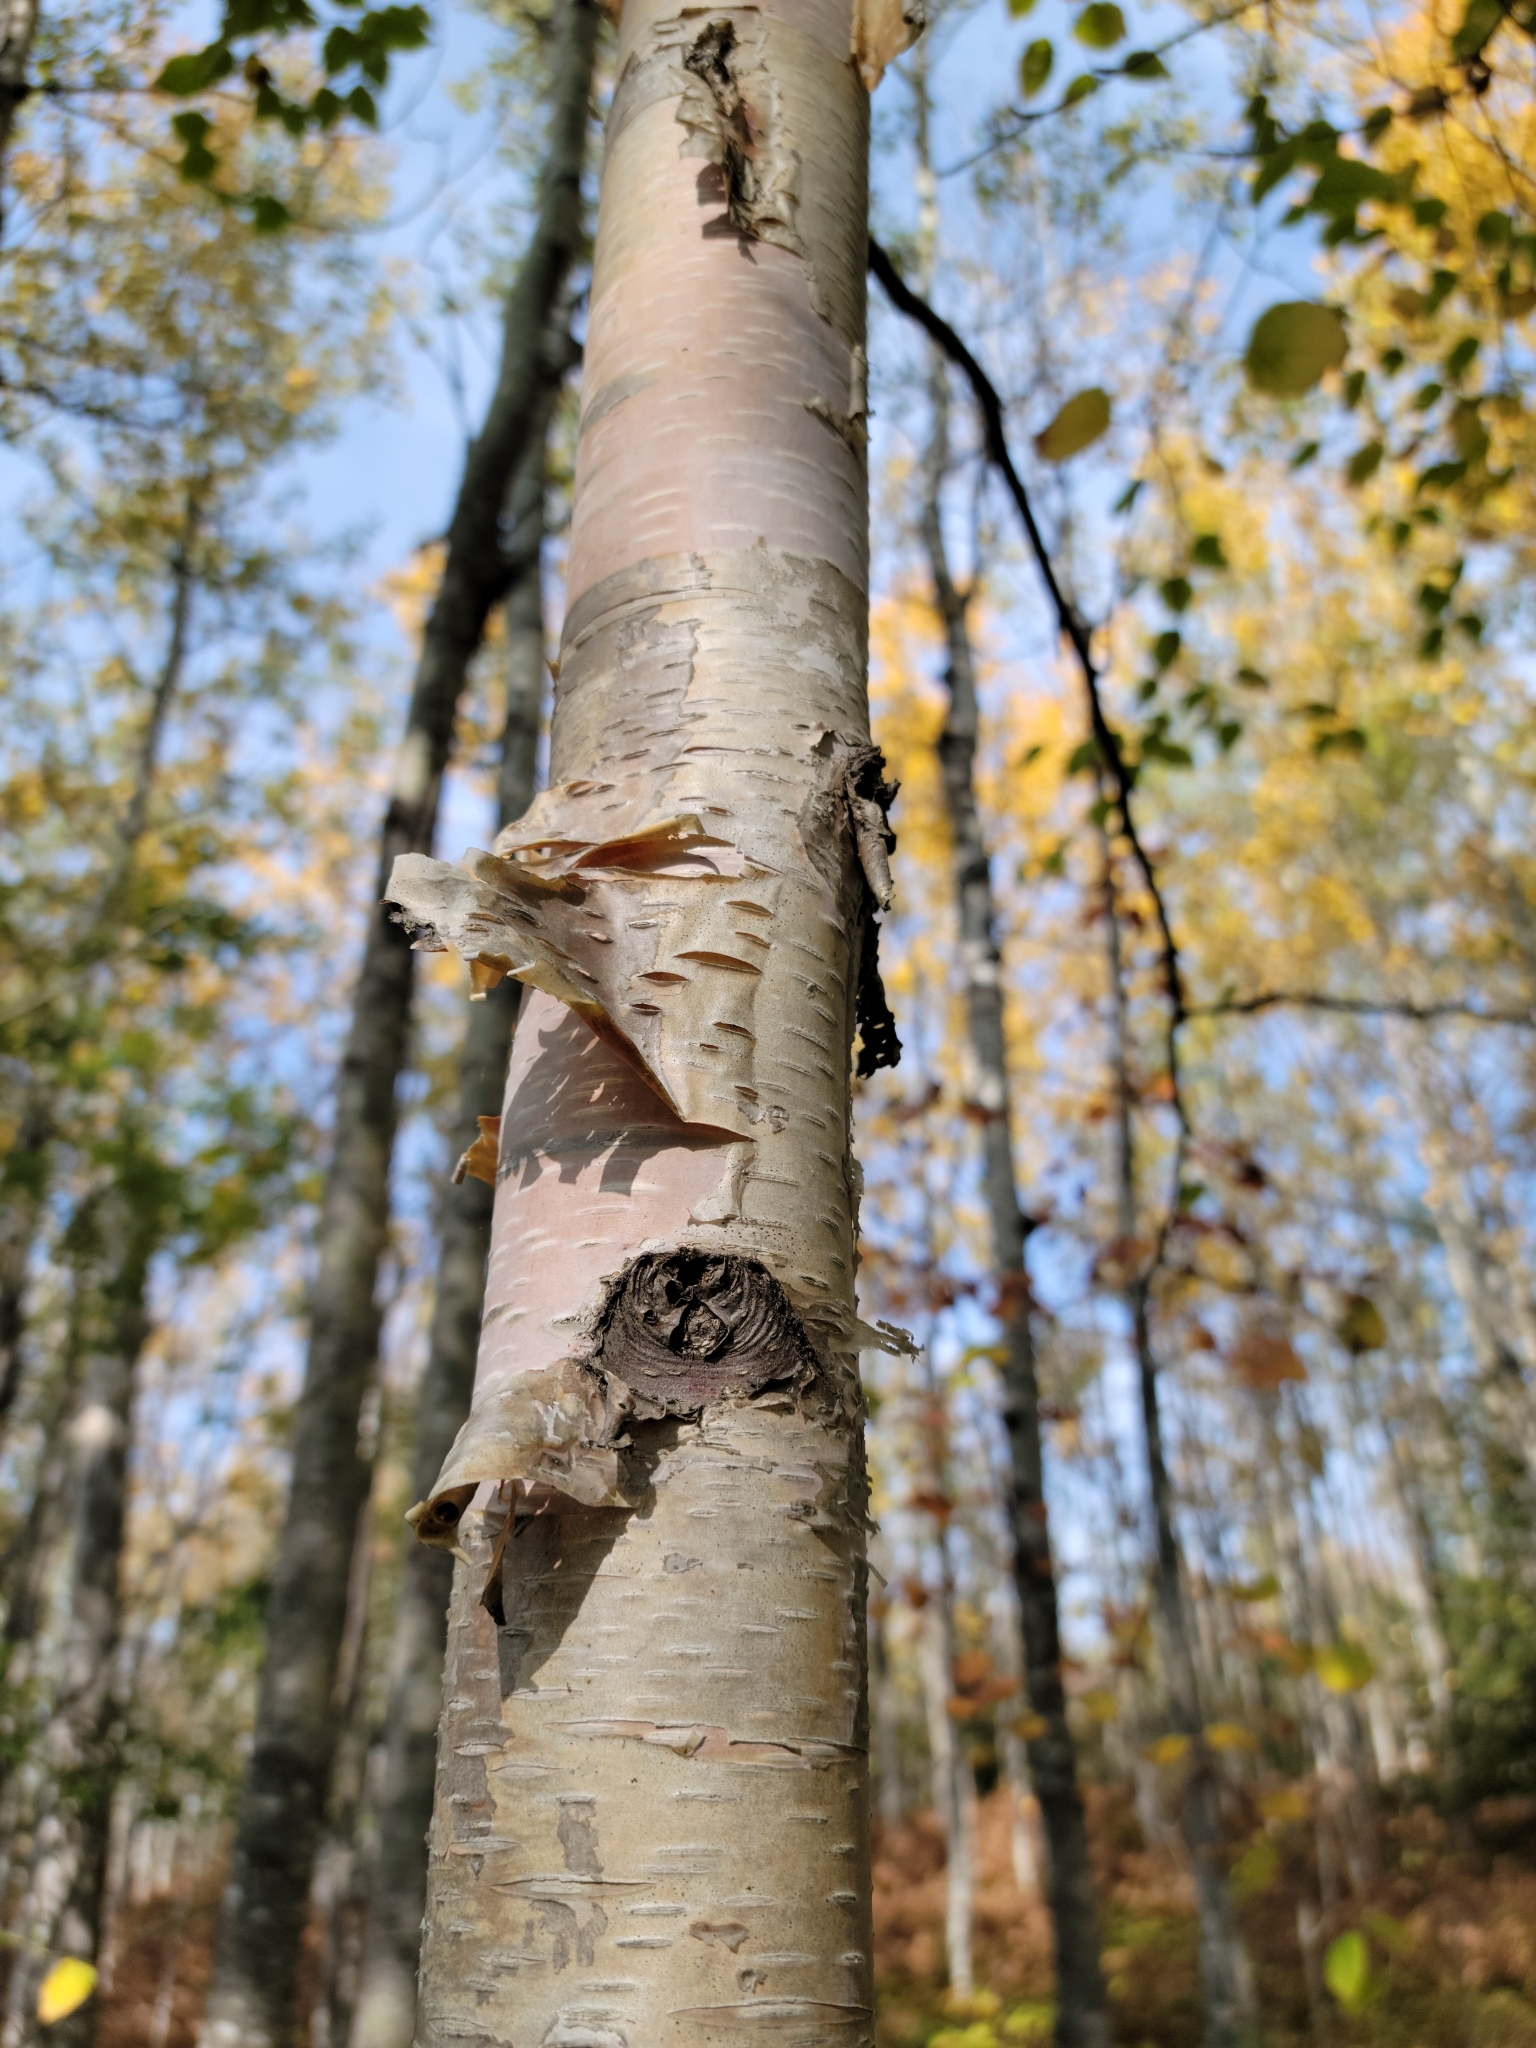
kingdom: Plantae
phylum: Tracheophyta
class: Magnoliopsida
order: Fagales
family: Betulaceae
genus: Betula
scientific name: Betula papyrifera
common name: Paper birch
